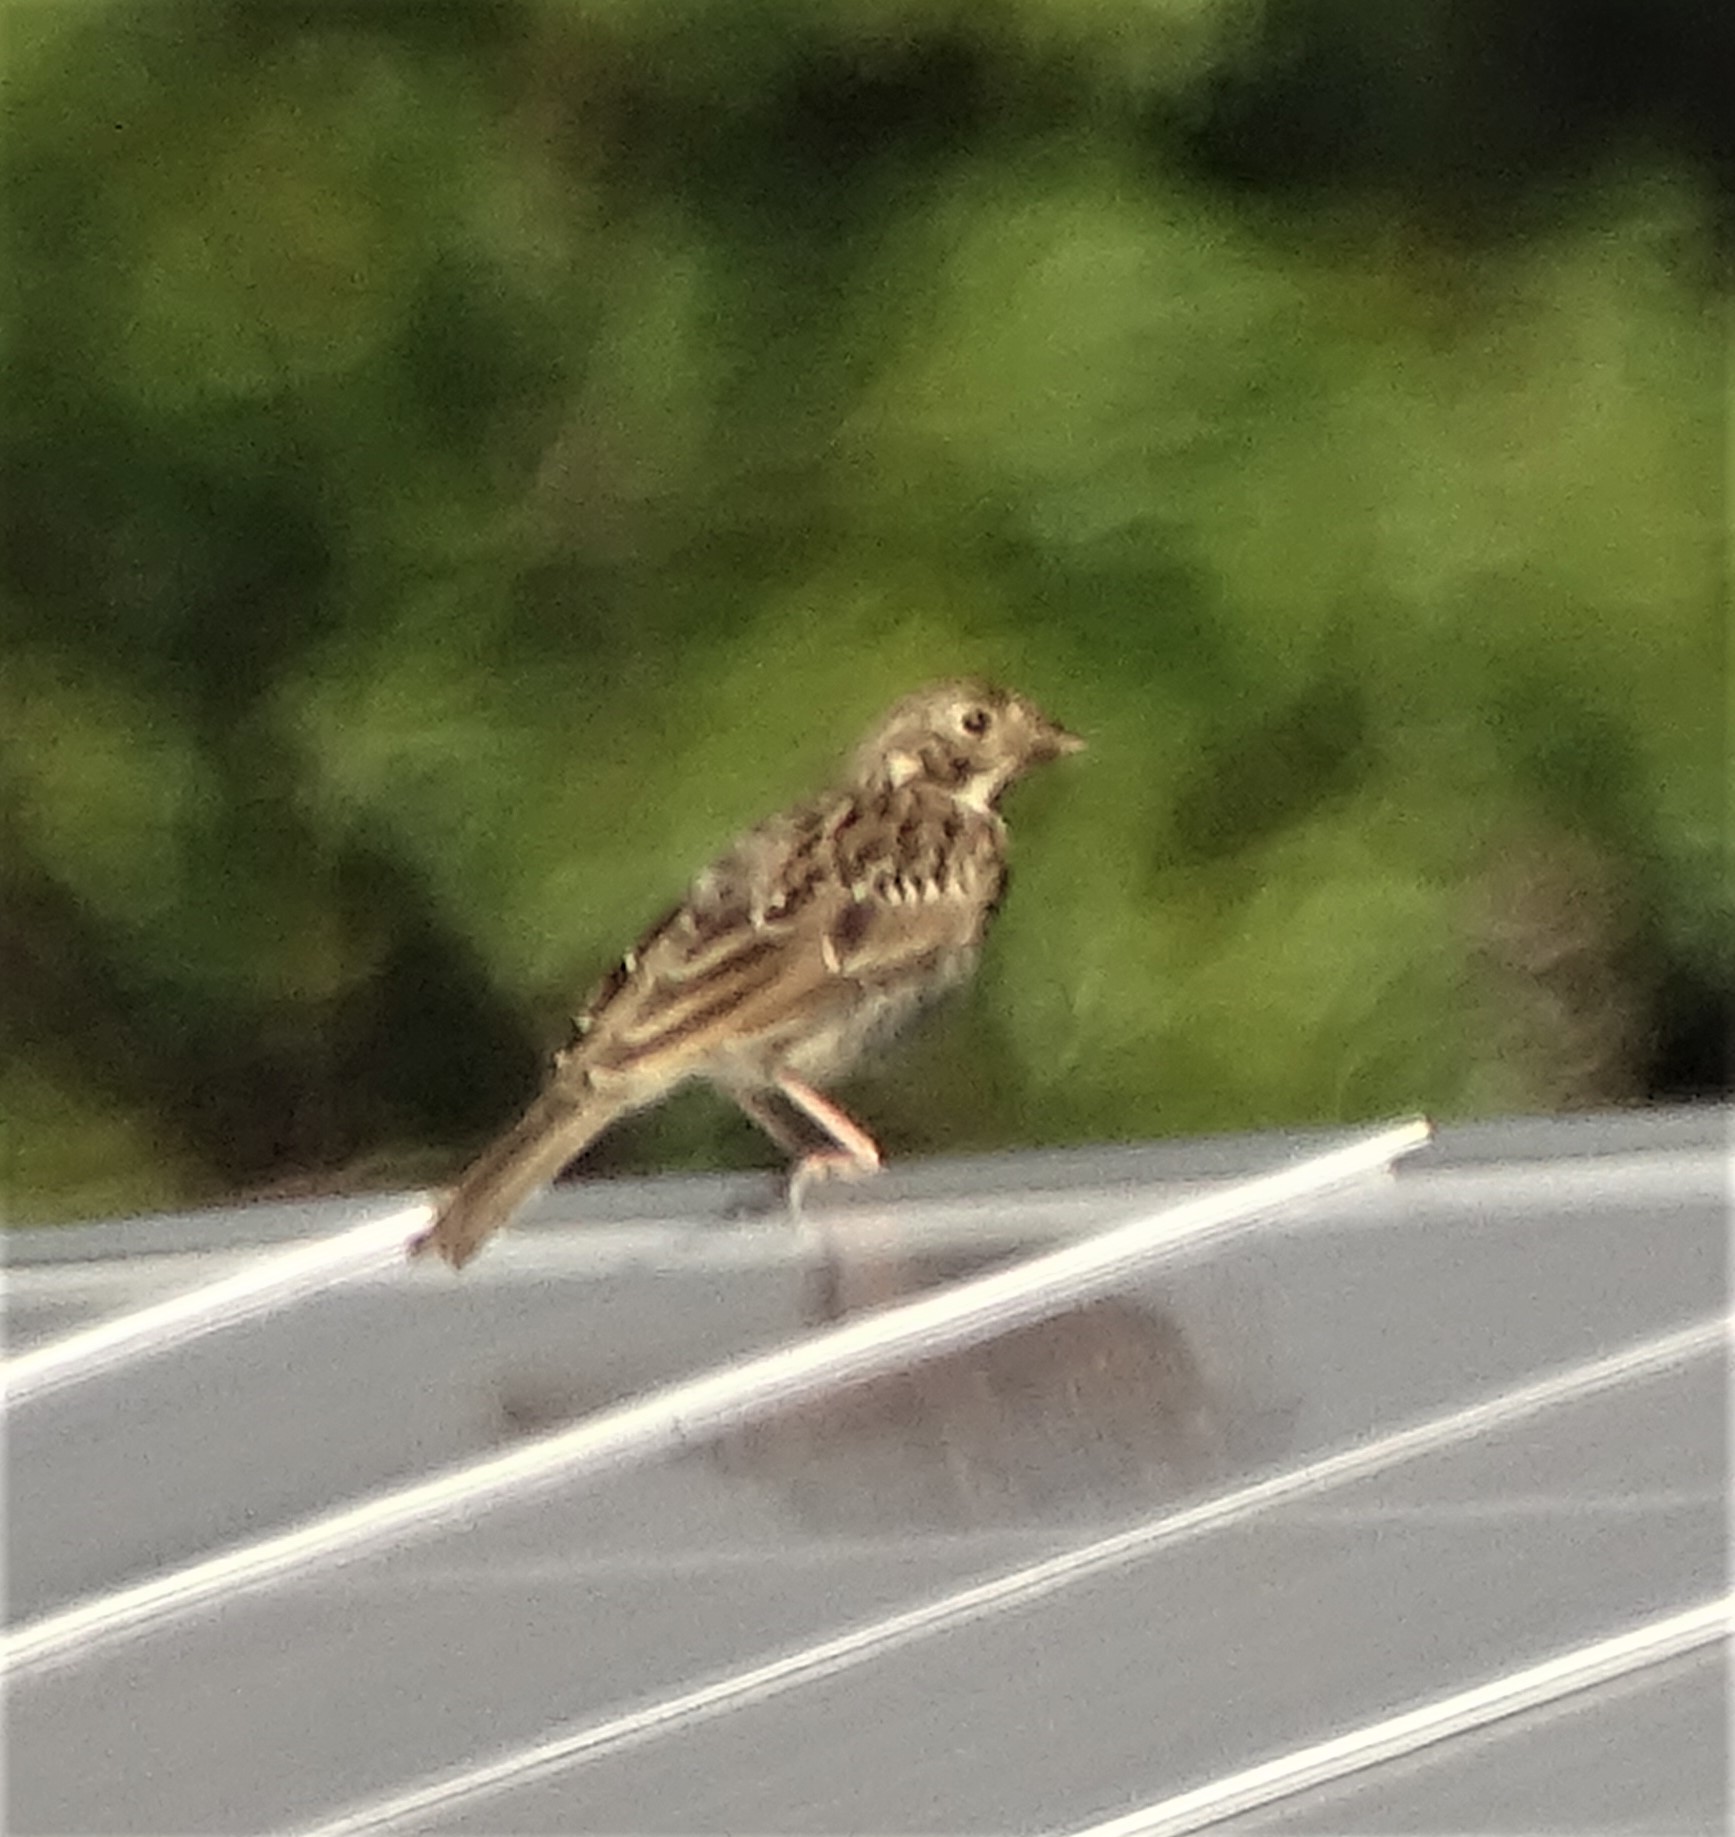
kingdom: Animalia
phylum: Chordata
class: Aves
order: Passeriformes
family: Passerellidae
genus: Pooecetes
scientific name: Pooecetes gramineus
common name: Vesper sparrow
